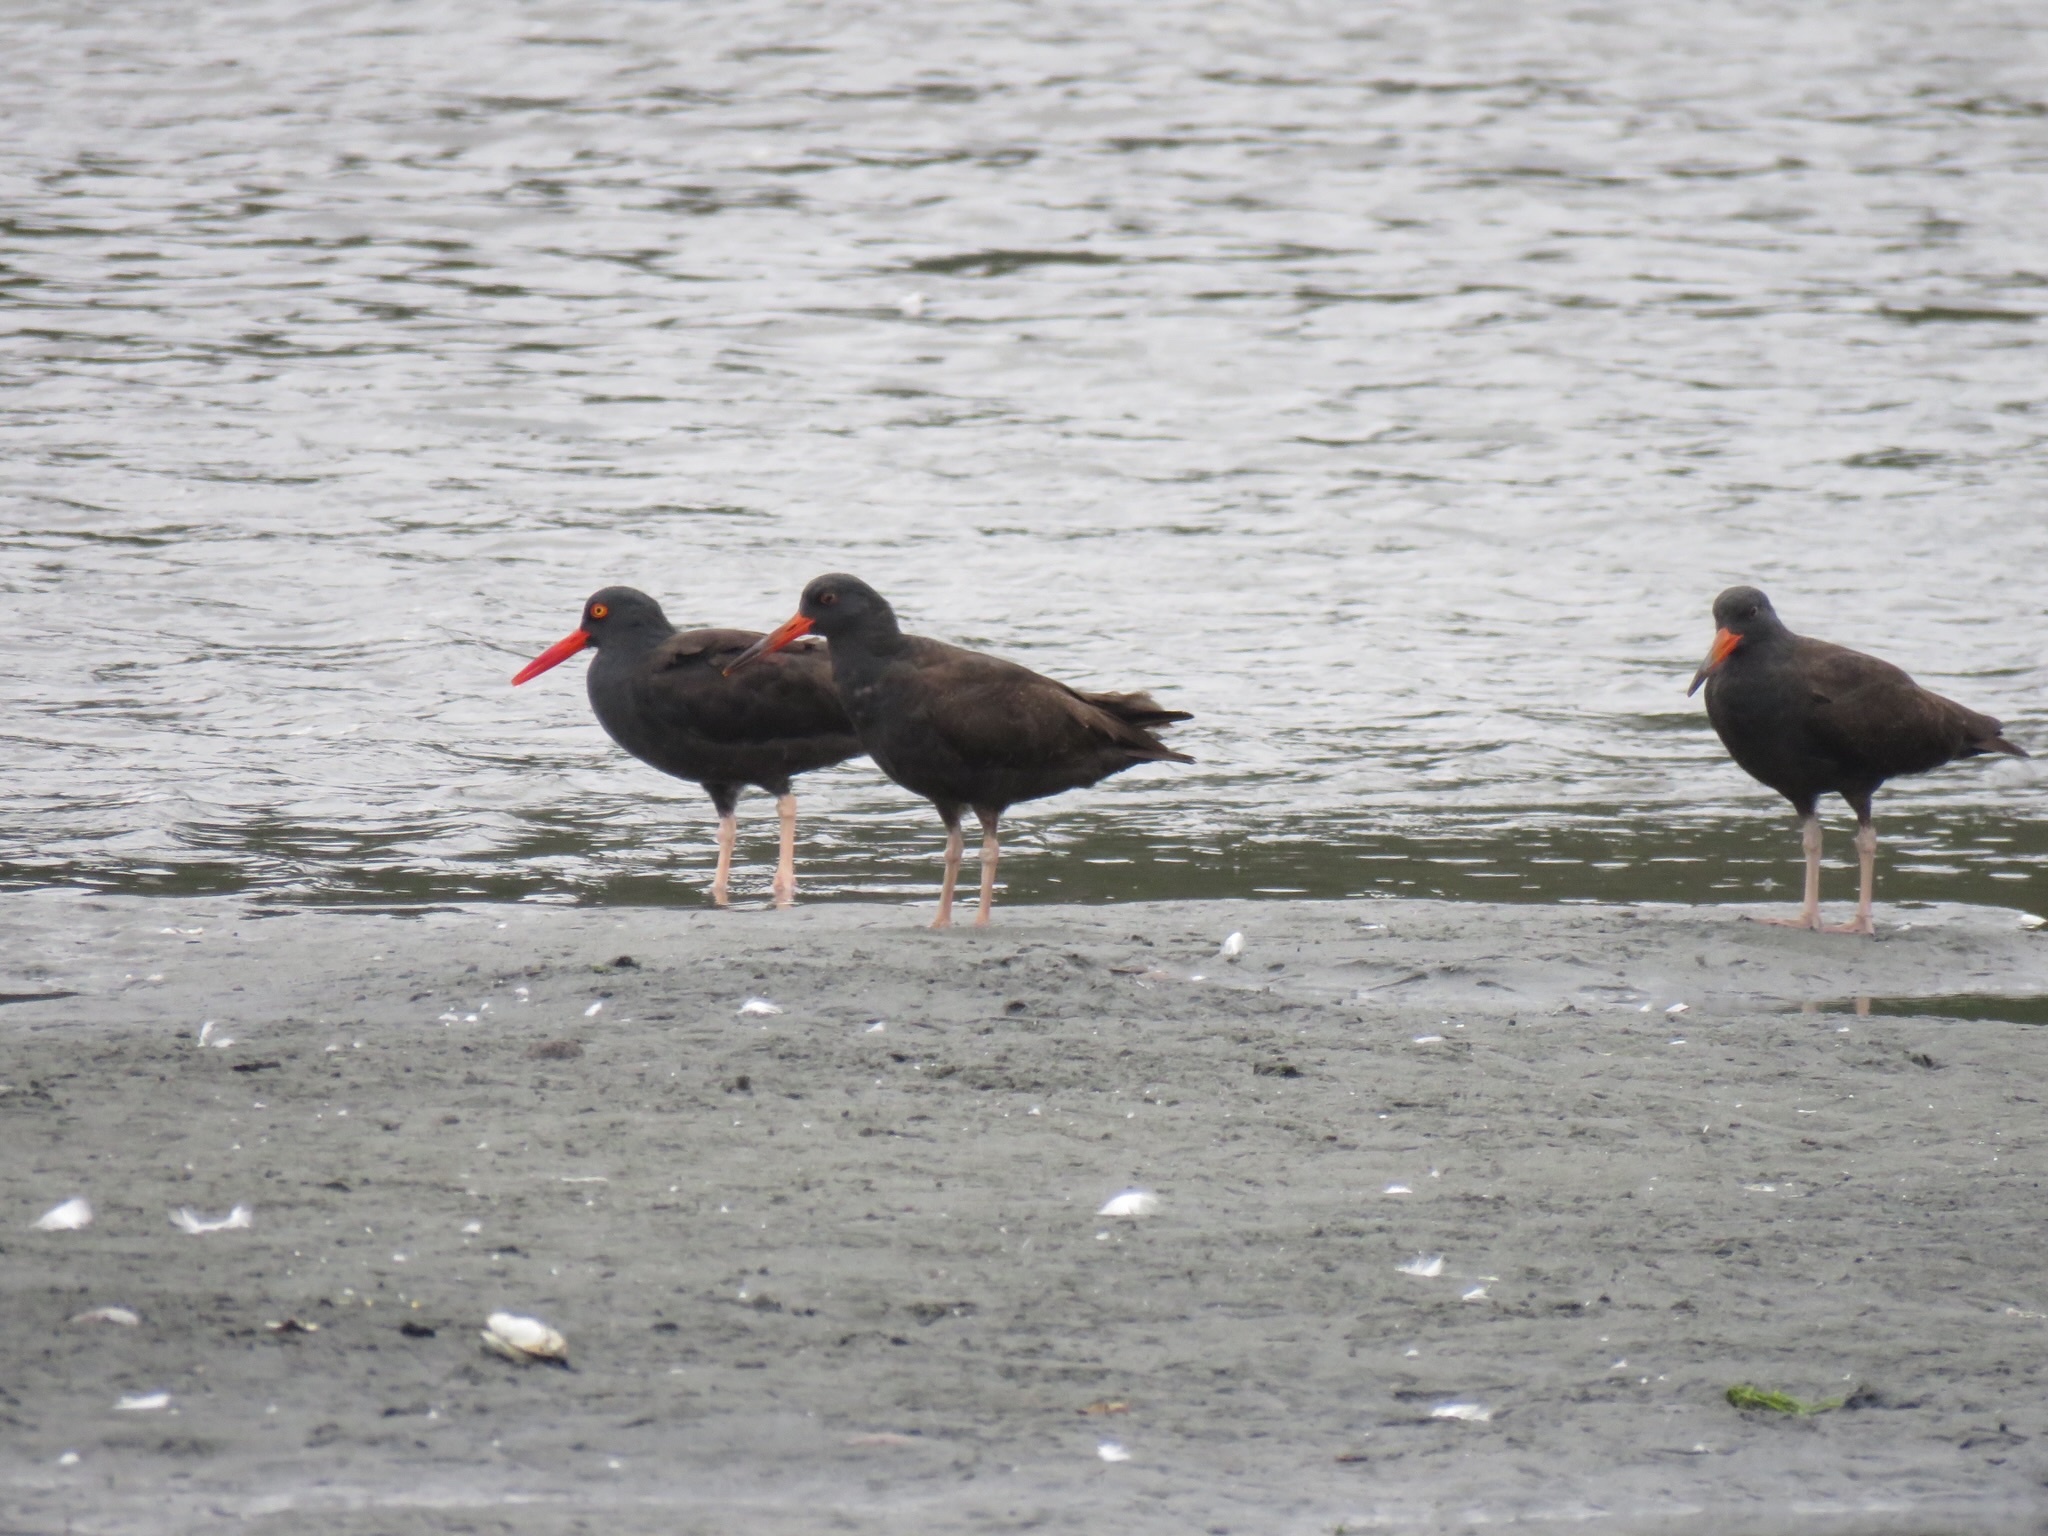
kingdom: Animalia
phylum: Chordata
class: Aves
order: Charadriiformes
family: Haematopodidae
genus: Haematopus
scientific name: Haematopus bachmani
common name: Black oystercatcher
